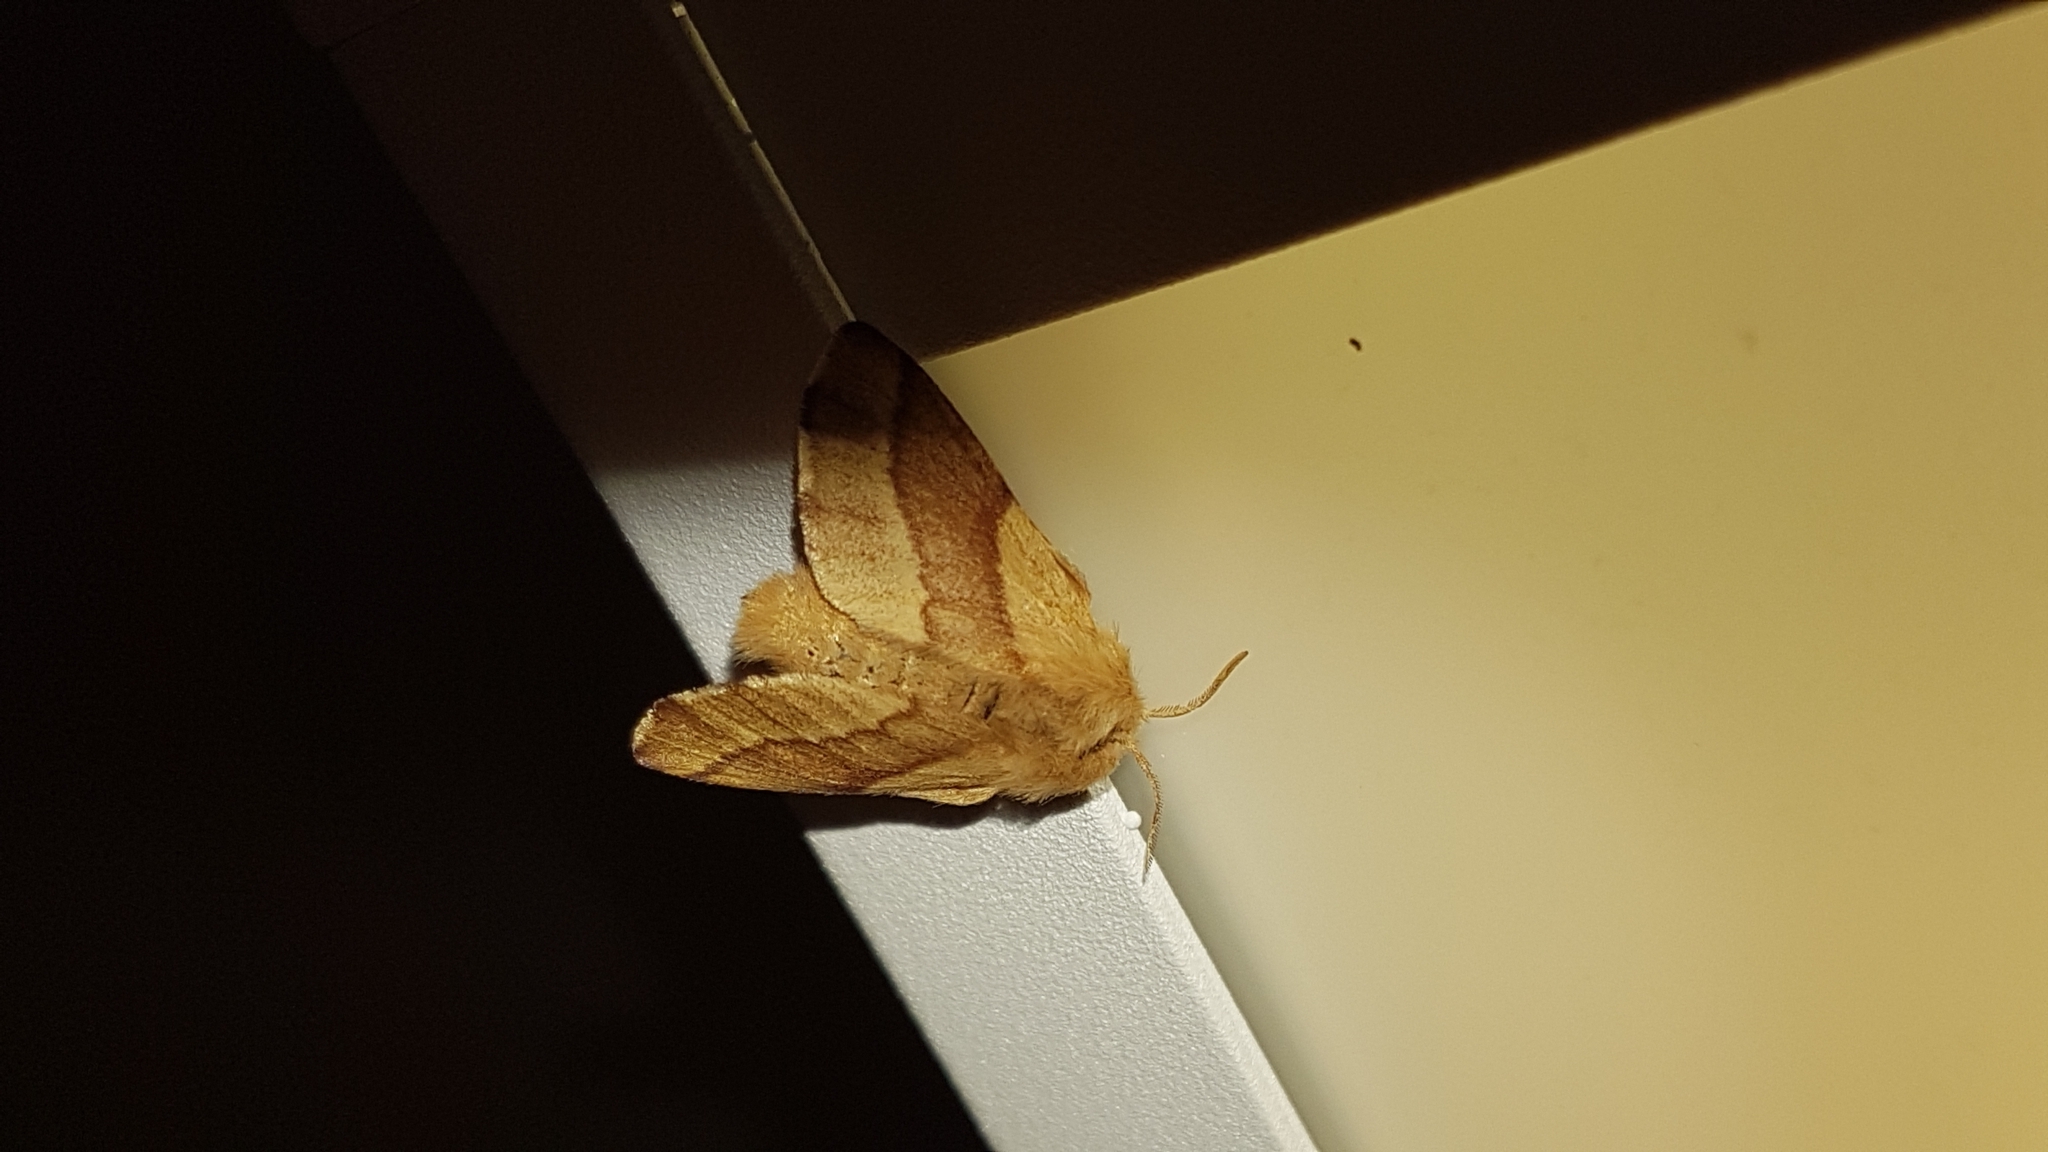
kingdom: Animalia
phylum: Arthropoda
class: Insecta
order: Lepidoptera
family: Lasiocampidae
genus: Malacosoma
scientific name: Malacosoma disstria
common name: Forest tent caterpillar
